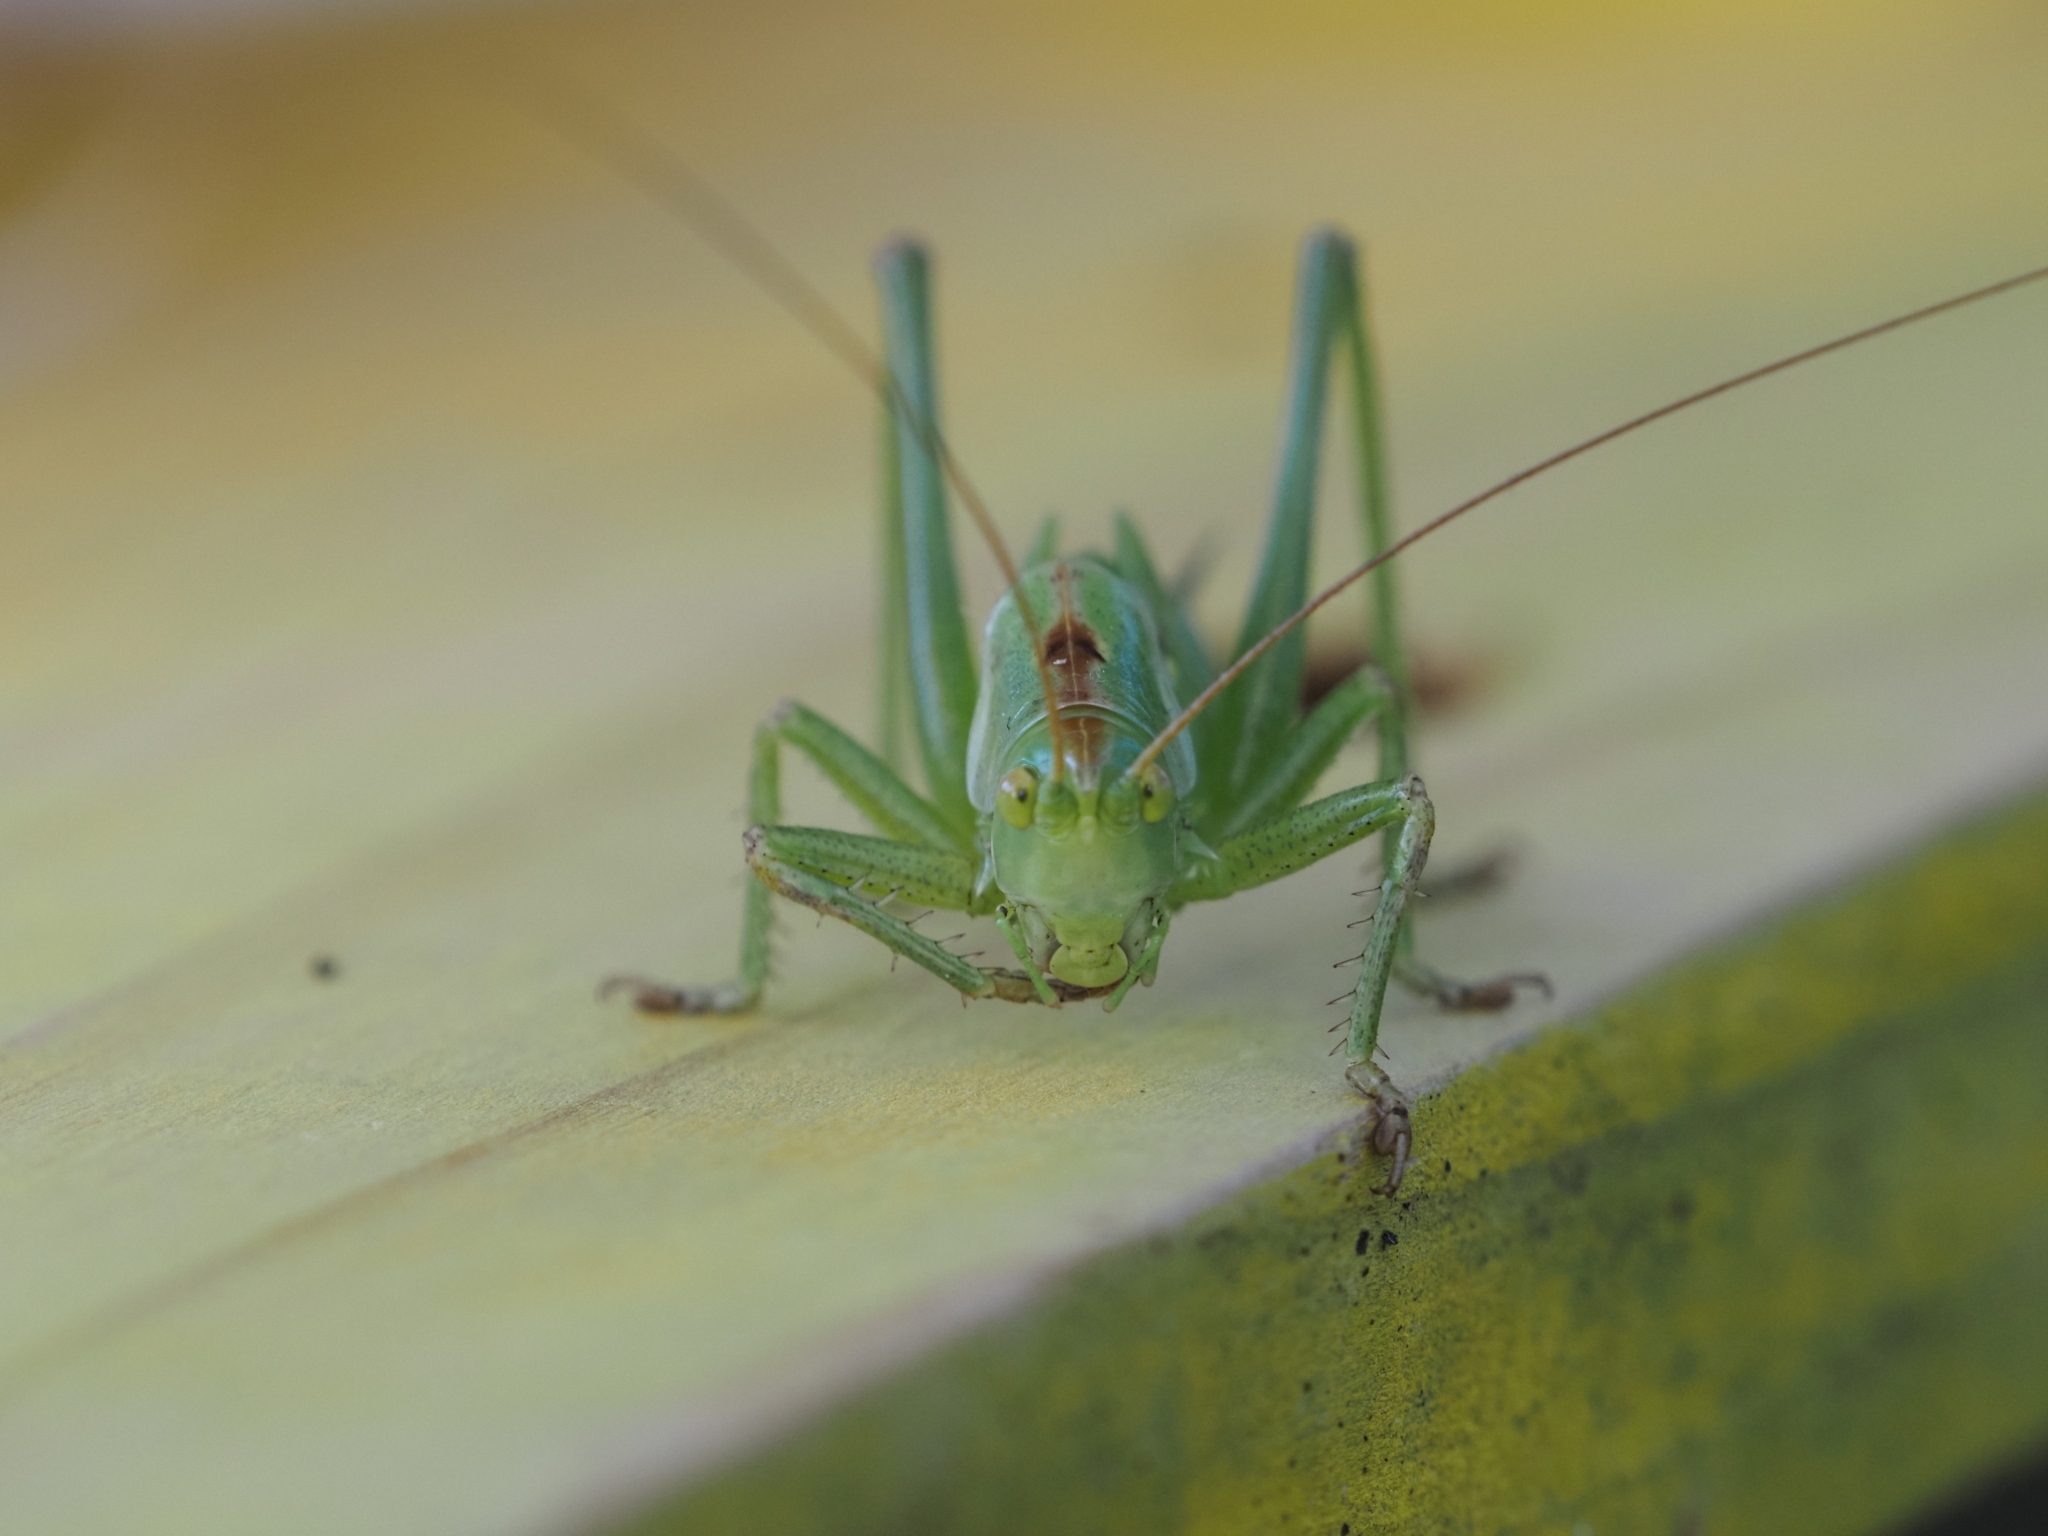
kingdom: Animalia
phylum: Arthropoda
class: Insecta
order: Orthoptera
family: Tettigoniidae
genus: Tettigonia
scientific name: Tettigonia viridissima
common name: Great green bush-cricket
